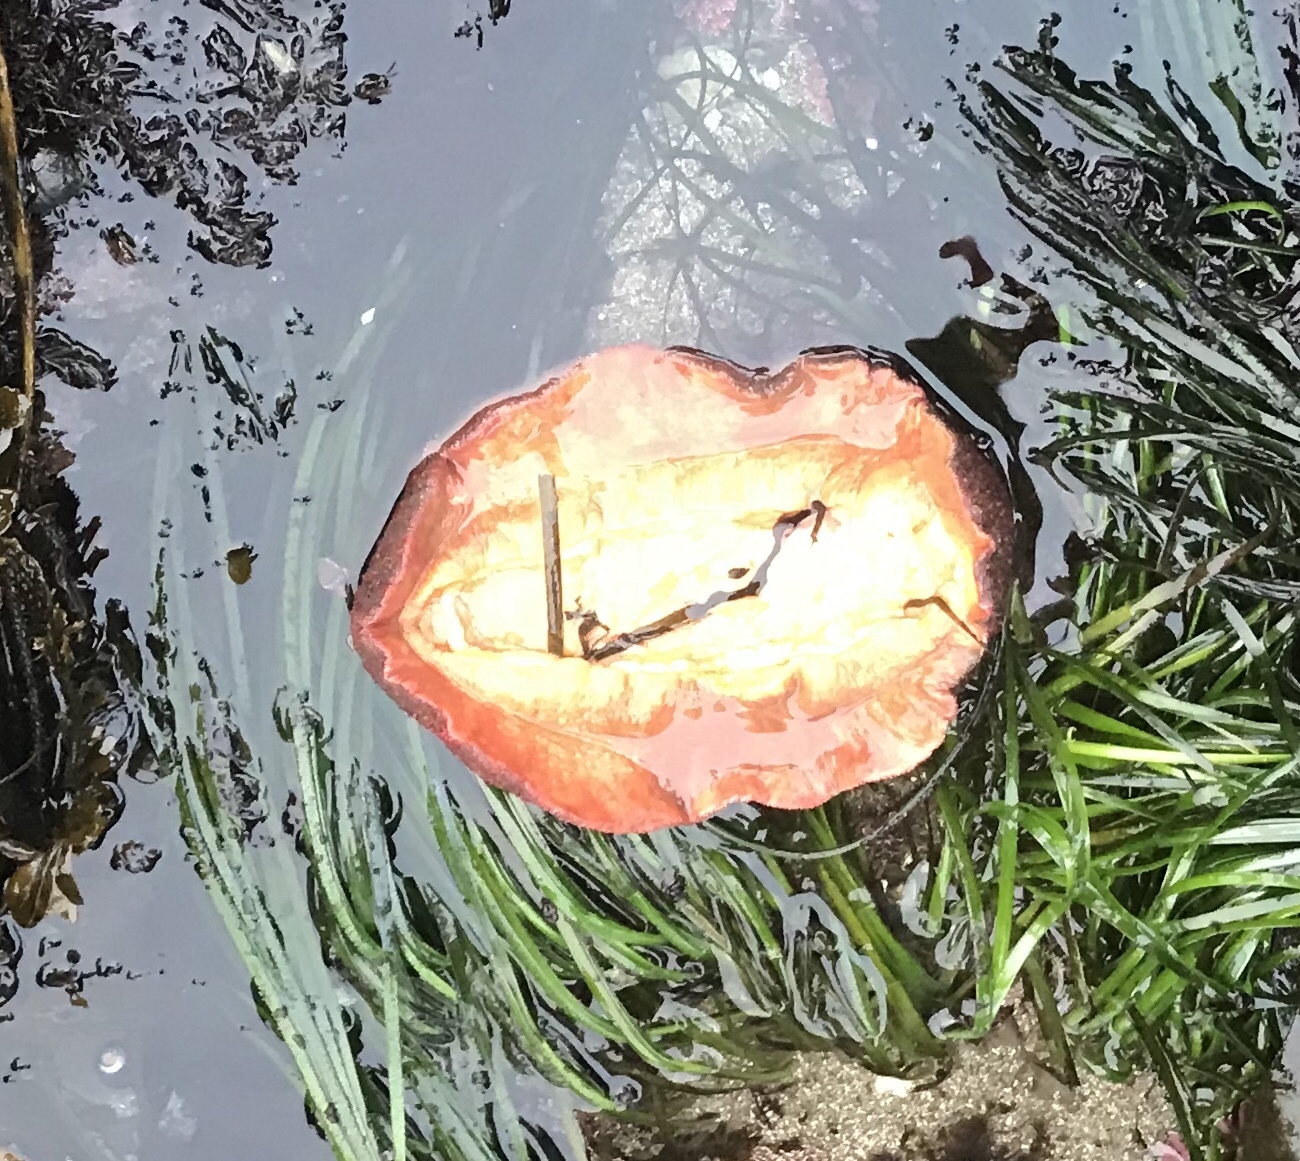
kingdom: Animalia
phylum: Mollusca
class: Polyplacophora
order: Chitonida
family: Acanthochitonidae
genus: Cryptochiton
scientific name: Cryptochiton stelleri
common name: Giant pacific chiton
